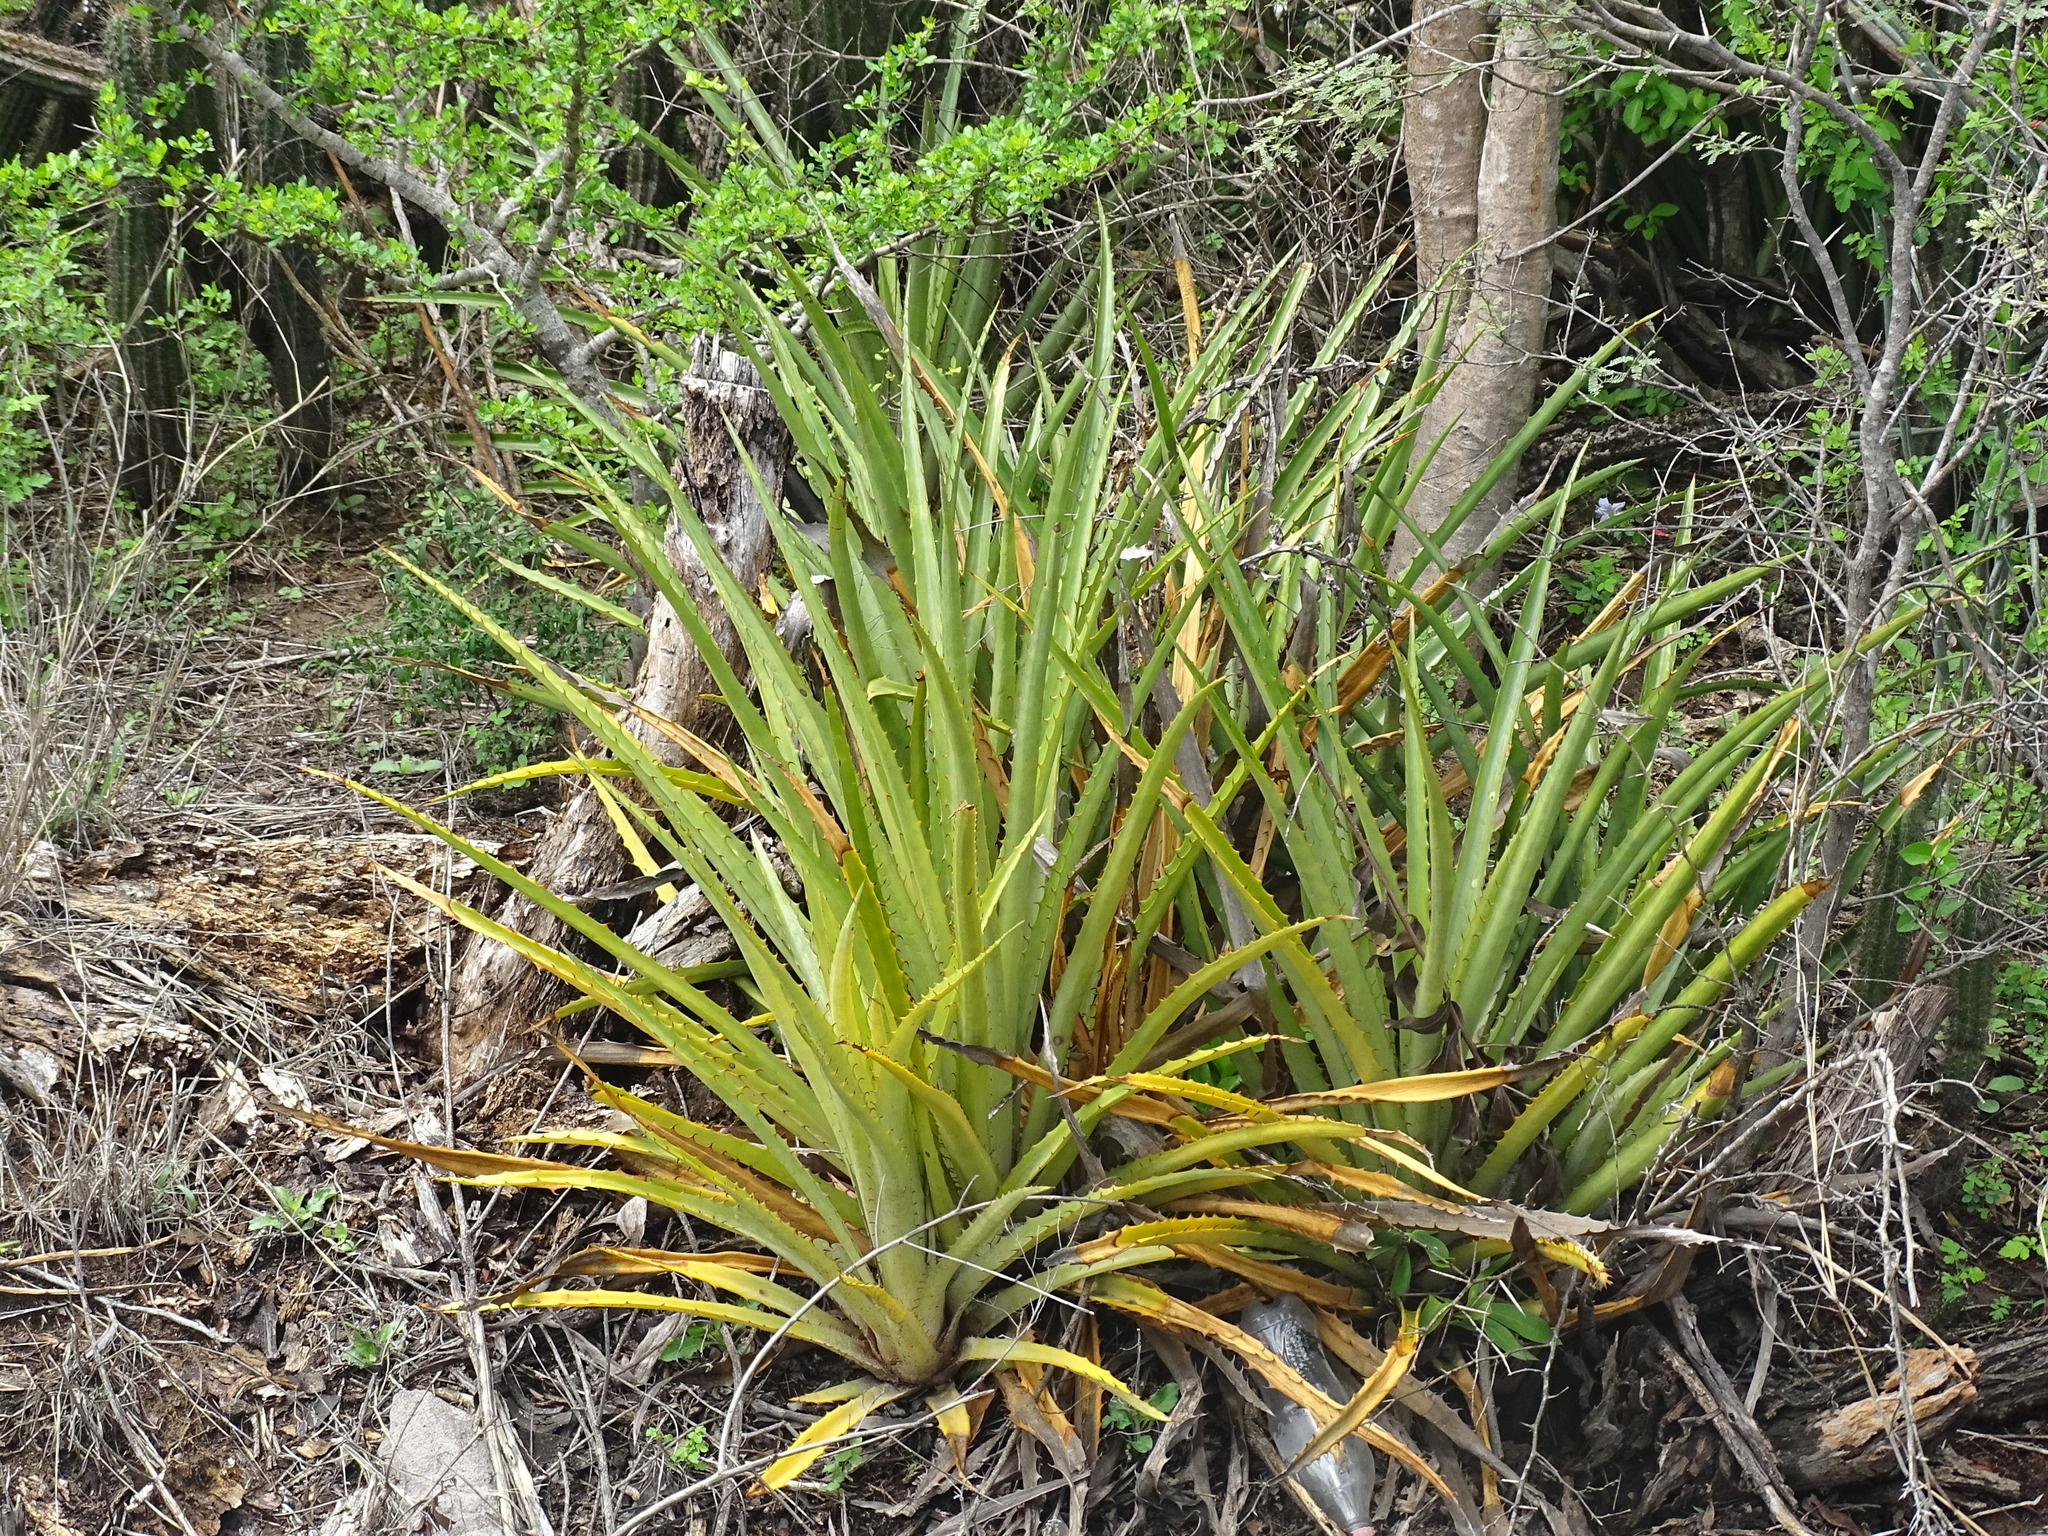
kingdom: Plantae
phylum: Tracheophyta
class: Liliopsida
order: Poales
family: Bromeliaceae
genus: Bromelia
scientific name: Bromelia pinguin
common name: Pinguin
